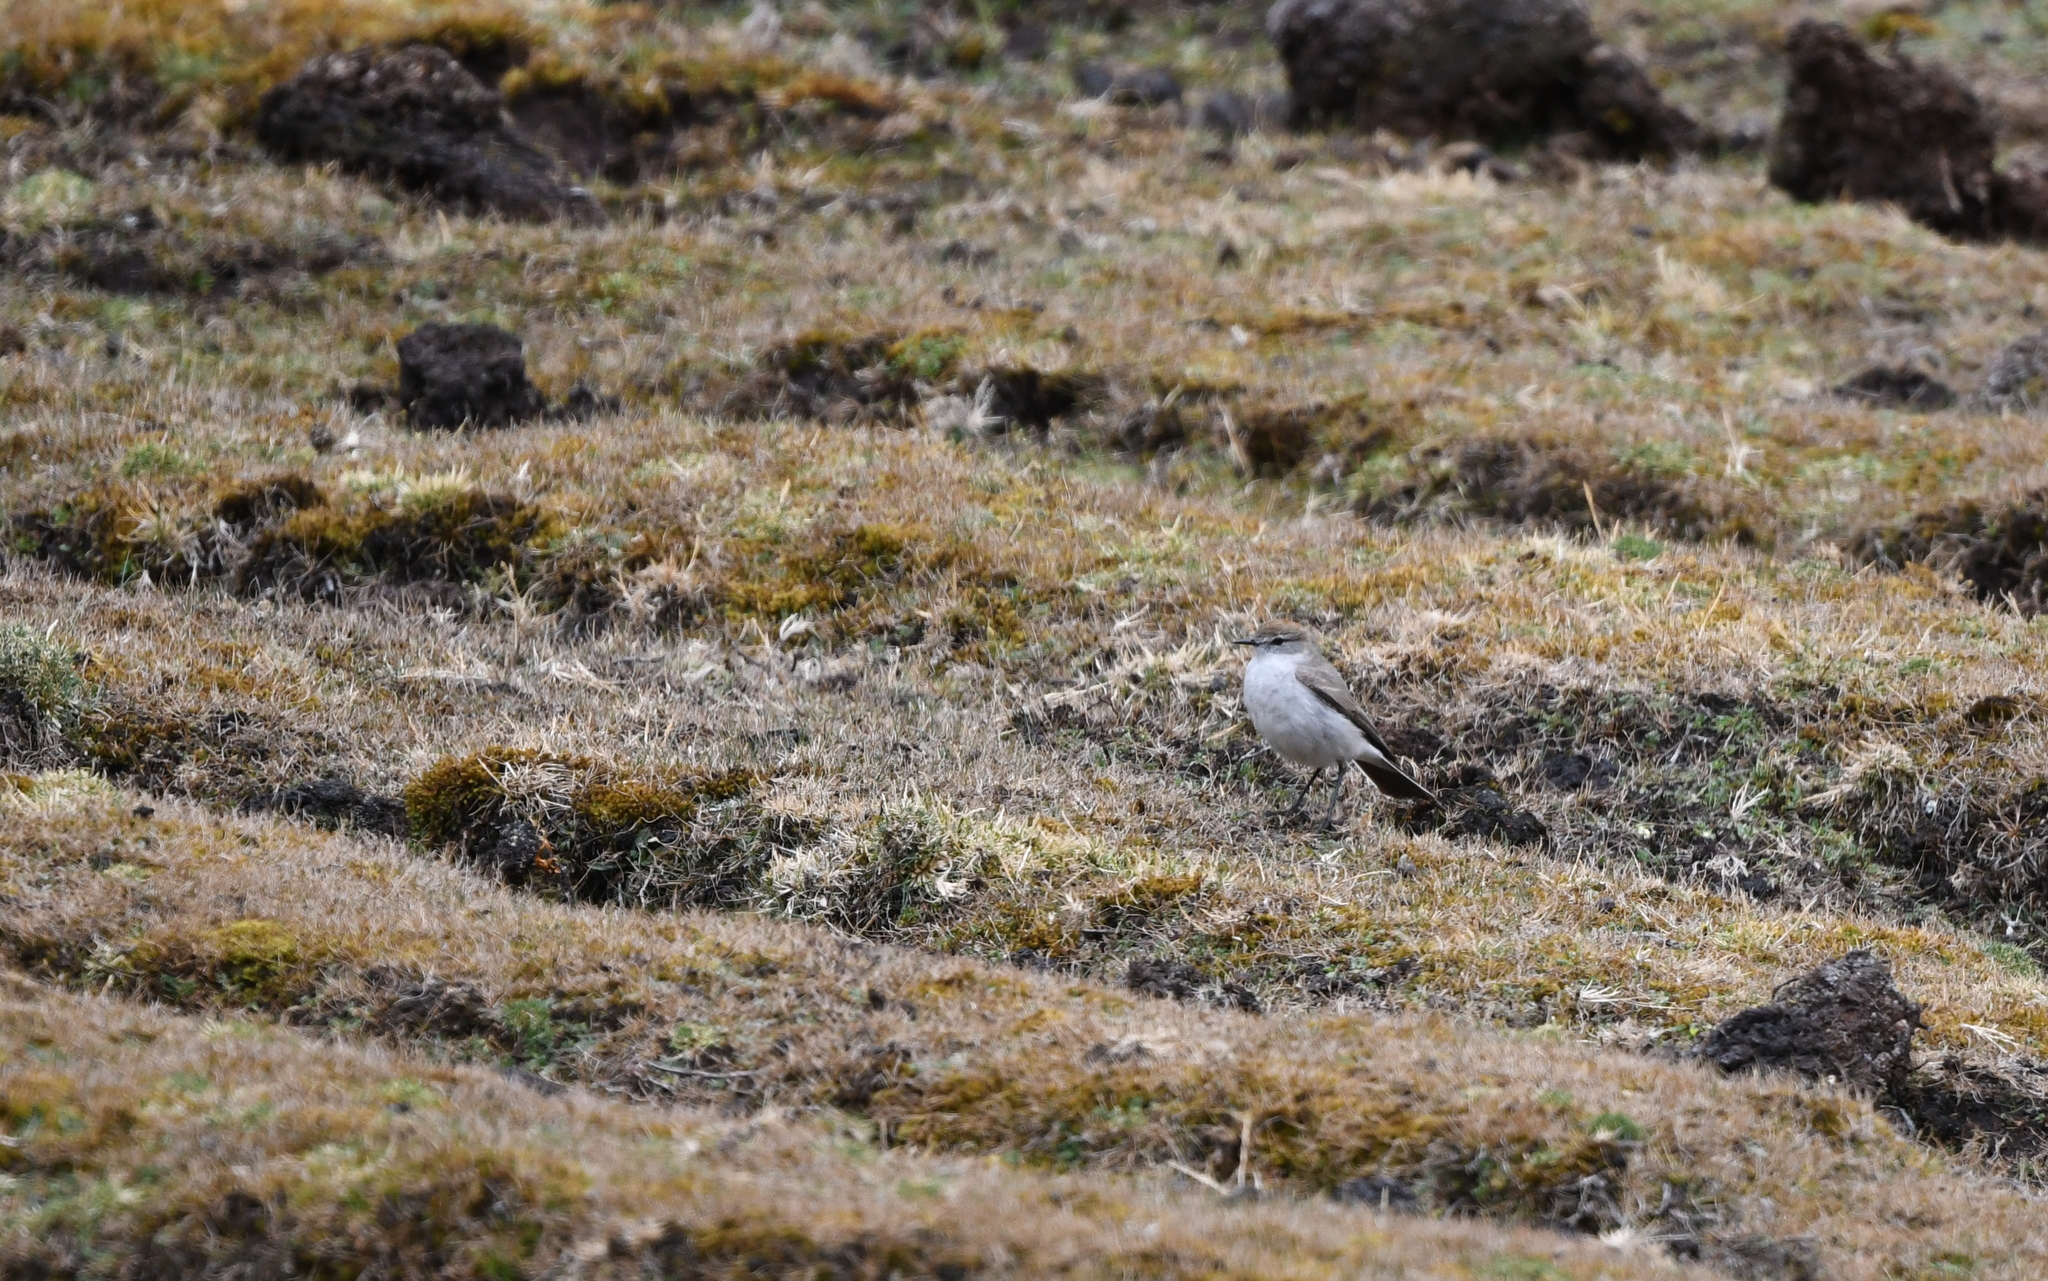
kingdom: Animalia
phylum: Chordata
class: Aves
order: Passeriformes
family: Tyrannidae
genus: Muscisaxicola
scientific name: Muscisaxicola juninensis
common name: Puna ground tyrant
